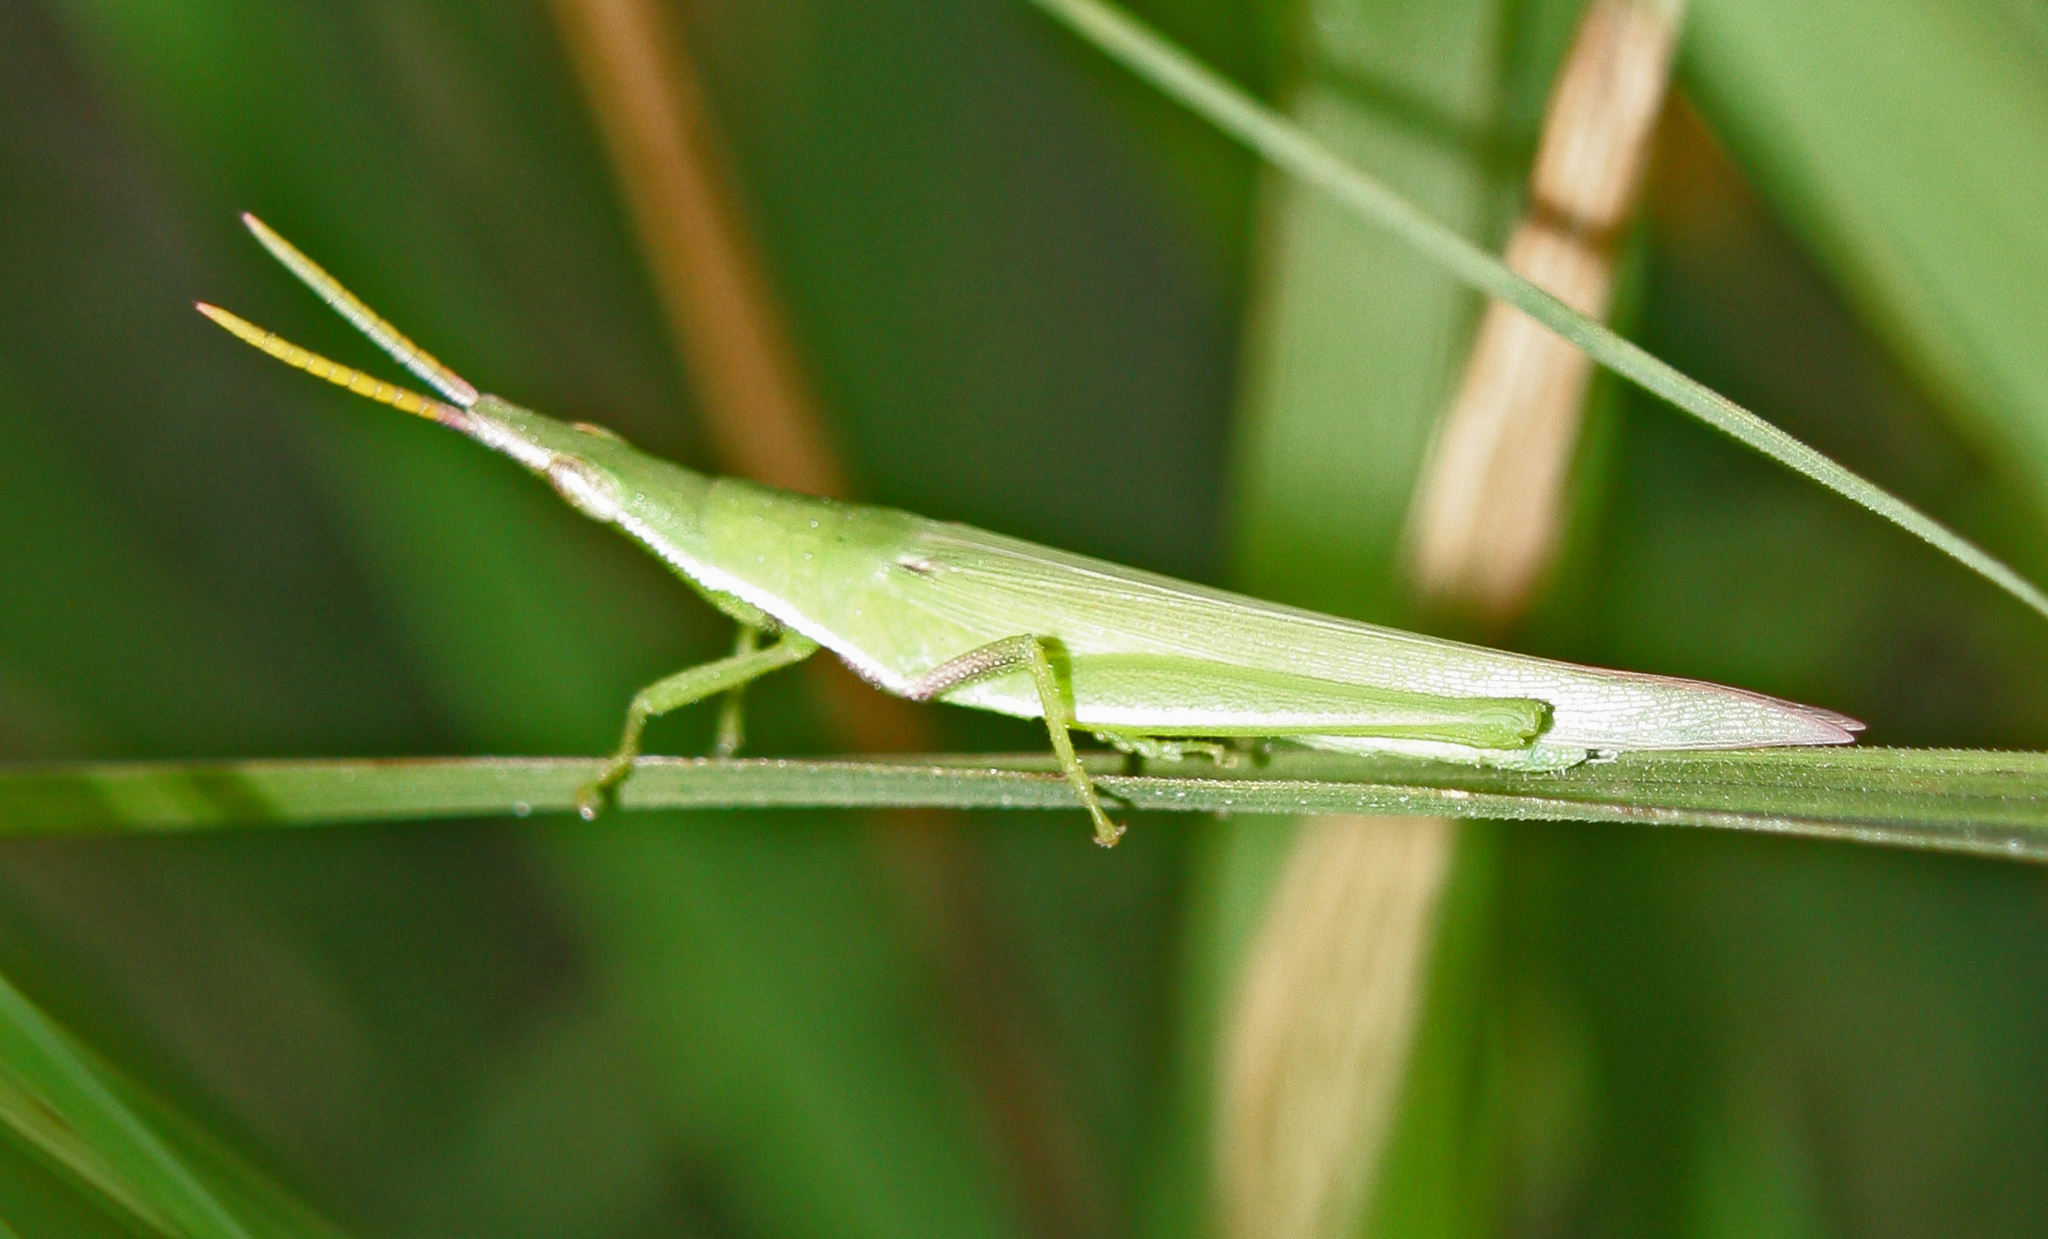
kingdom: Animalia
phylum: Arthropoda
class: Insecta
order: Orthoptera
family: Pyrgomorphidae
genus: Atractomorpha
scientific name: Atractomorpha similis
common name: Northern grass pyrgomorph
